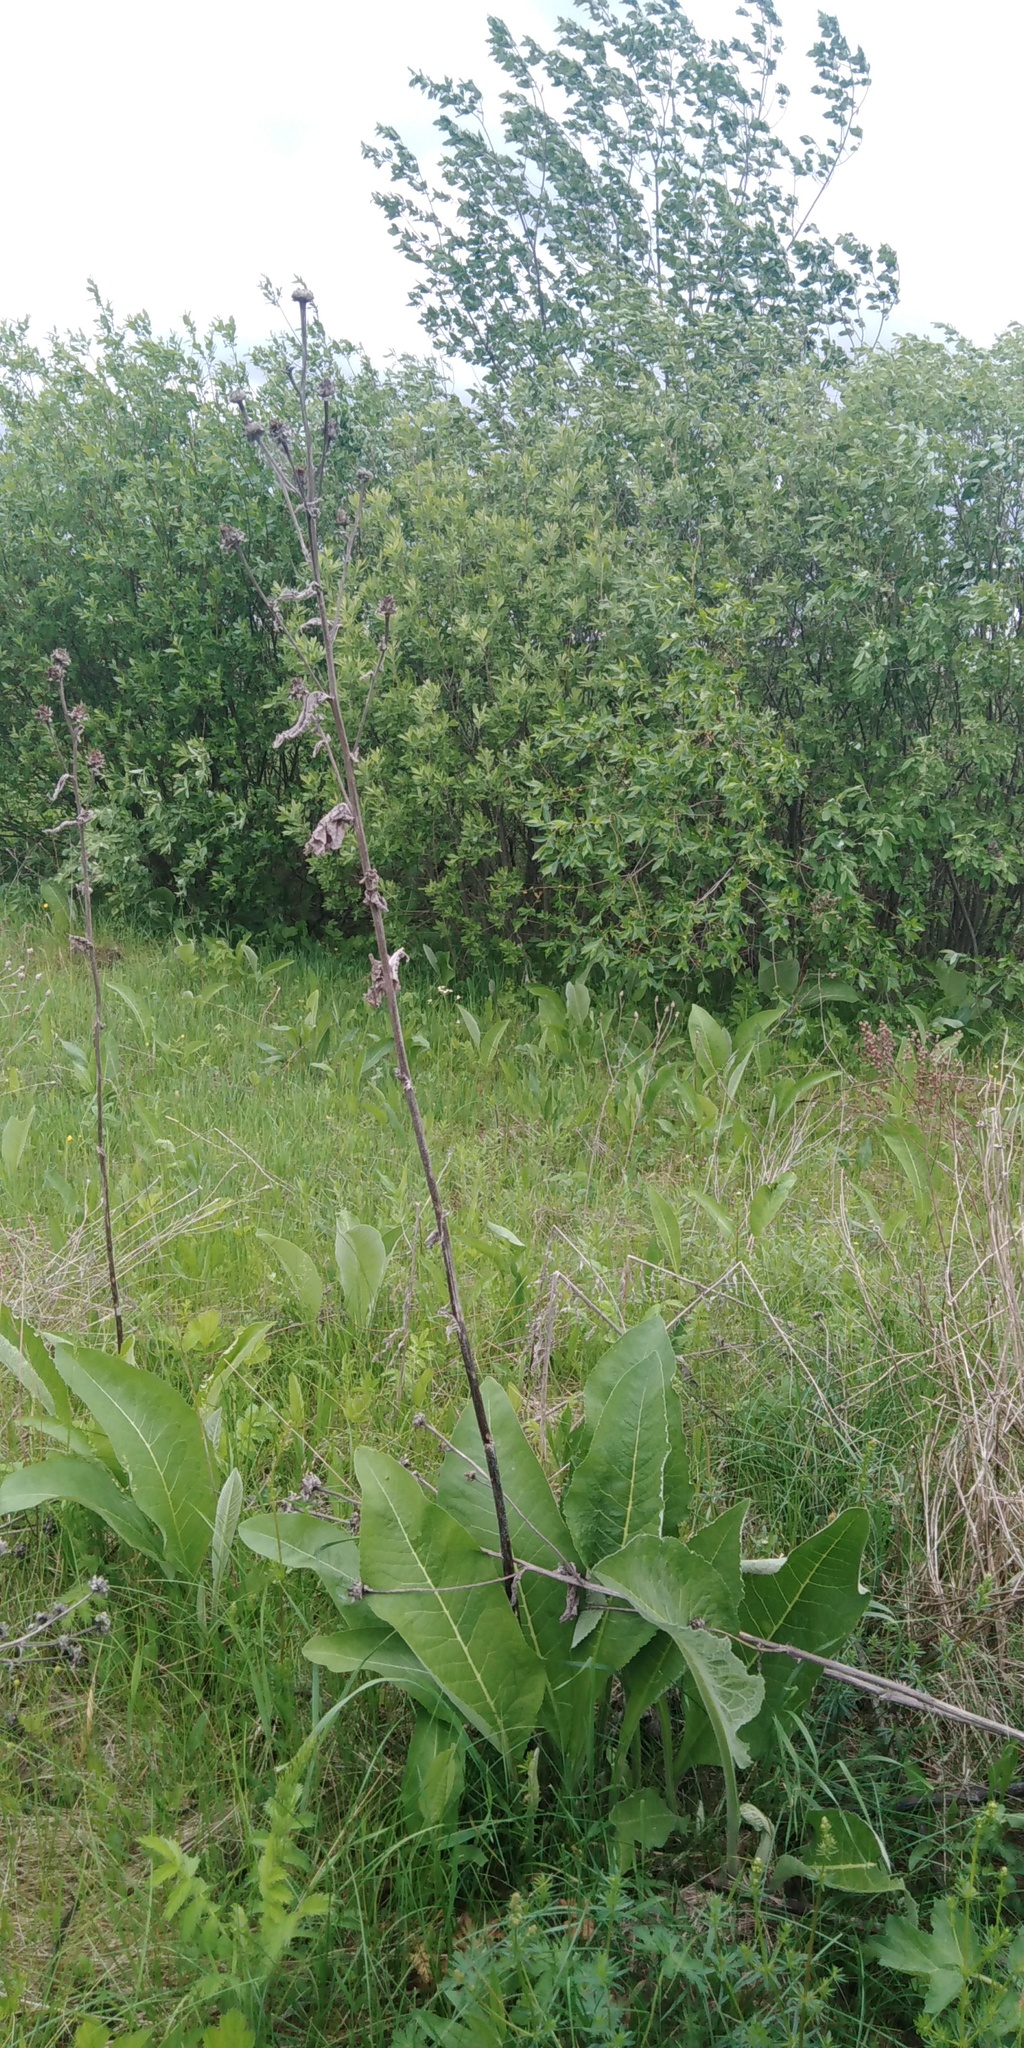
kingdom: Plantae
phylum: Tracheophyta
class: Magnoliopsida
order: Asterales
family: Asteraceae
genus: Inula
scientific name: Inula helenium
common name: Elecampane
